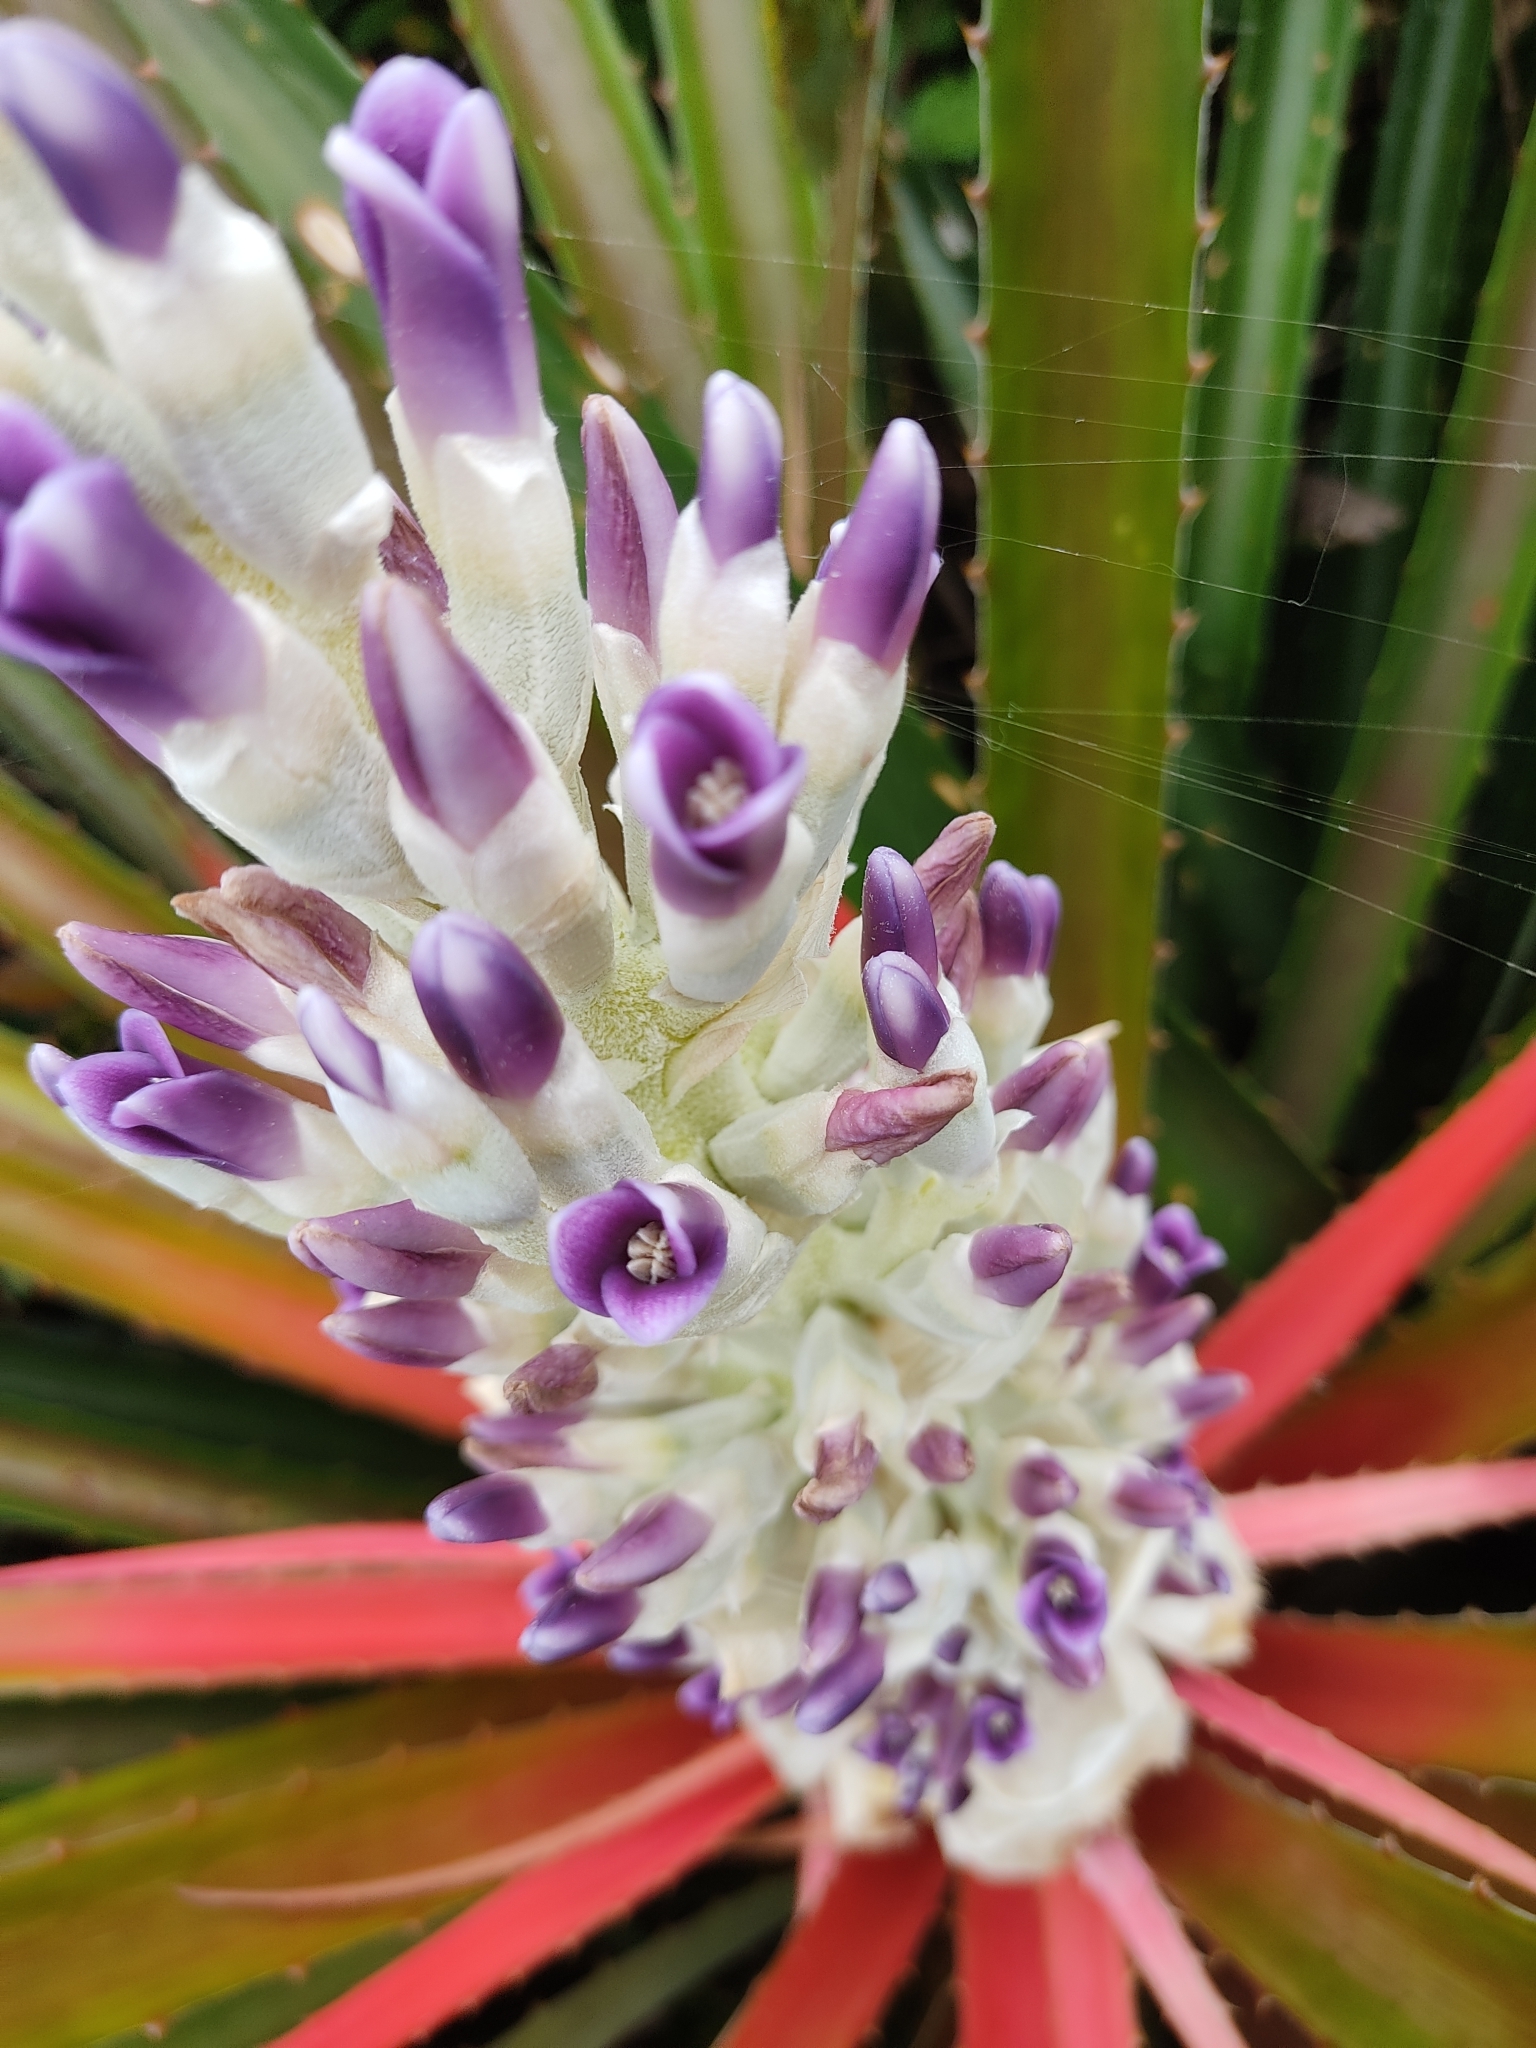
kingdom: Plantae
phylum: Tracheophyta
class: Liliopsida
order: Poales
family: Bromeliaceae
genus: Bromelia
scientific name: Bromelia antiacantha
